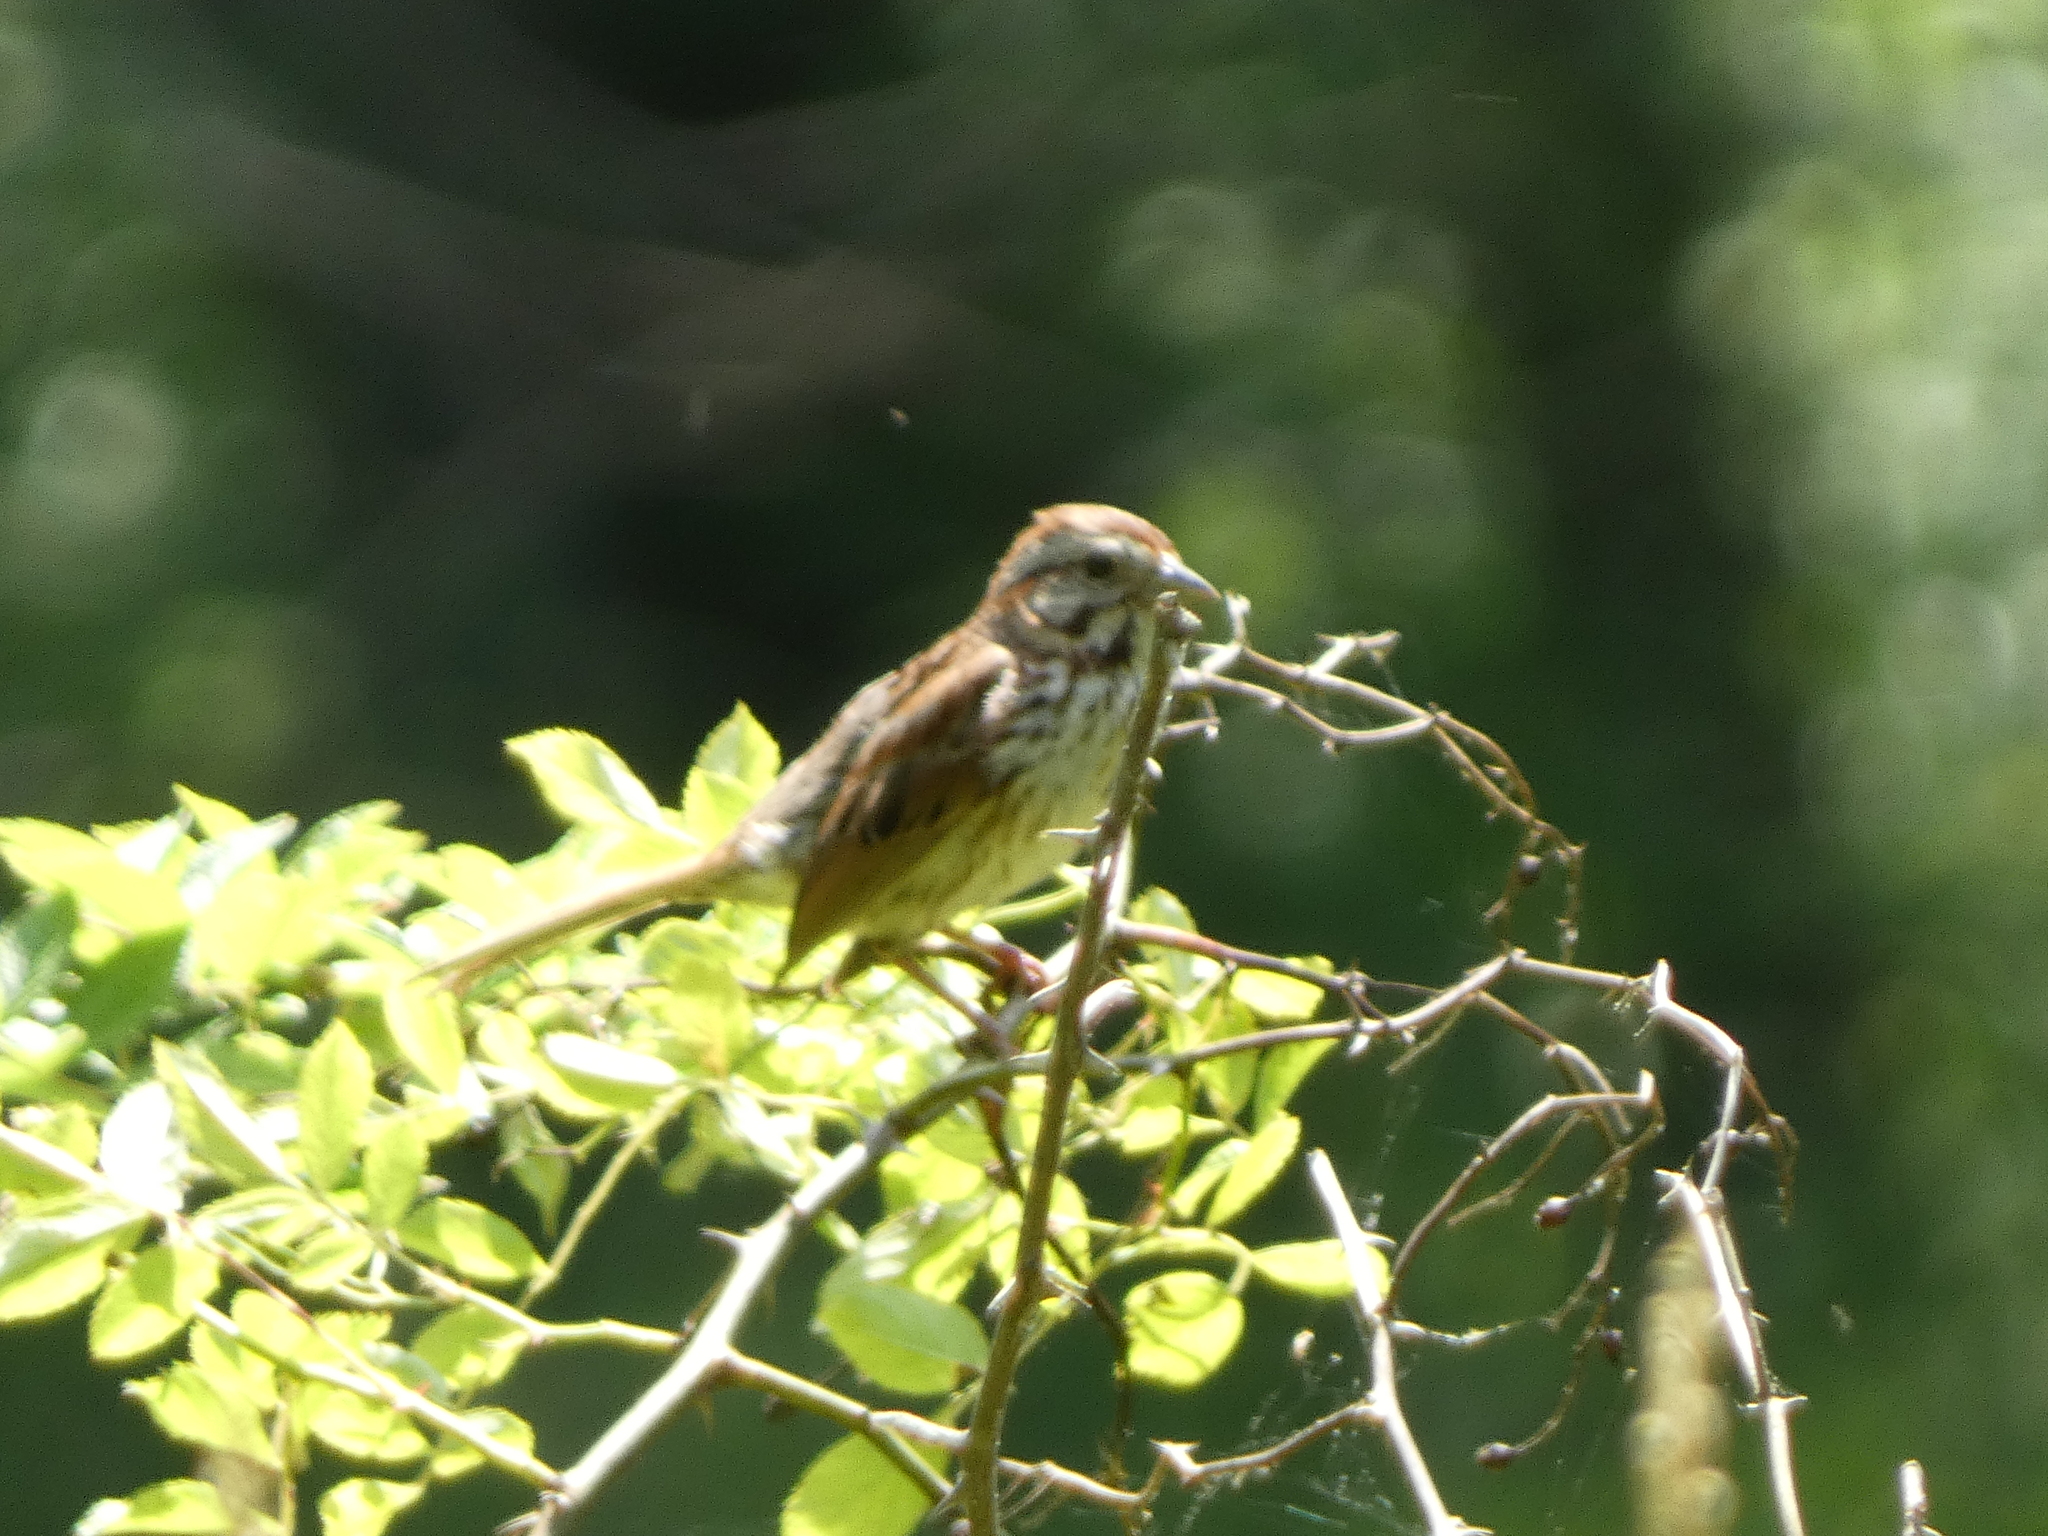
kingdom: Animalia
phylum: Chordata
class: Aves
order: Passeriformes
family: Passerellidae
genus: Melospiza
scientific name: Melospiza melodia
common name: Song sparrow
